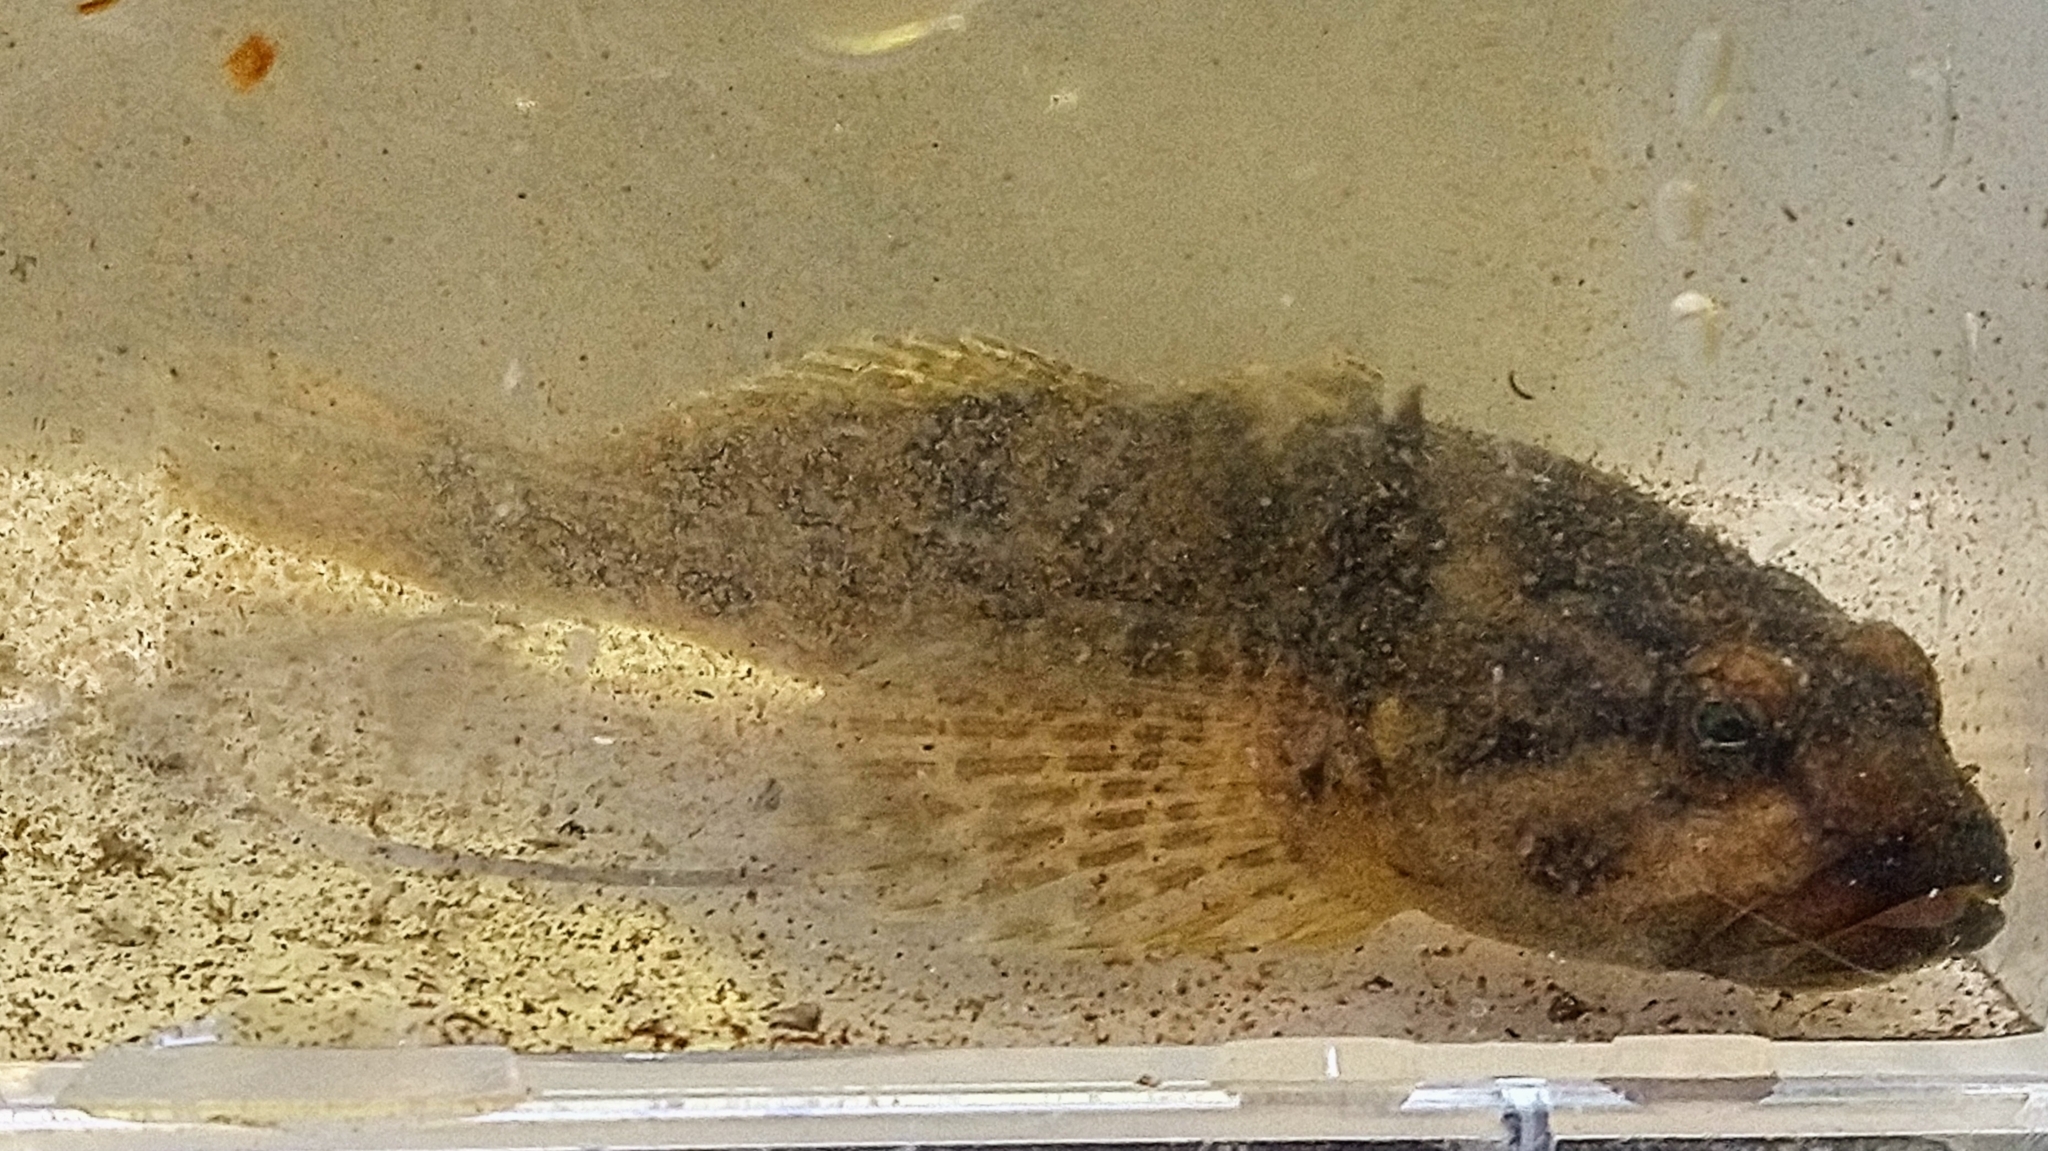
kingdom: Animalia
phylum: Chordata
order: Scorpaeniformes
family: Cottidae
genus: Cottus
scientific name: Cottus perifretum
